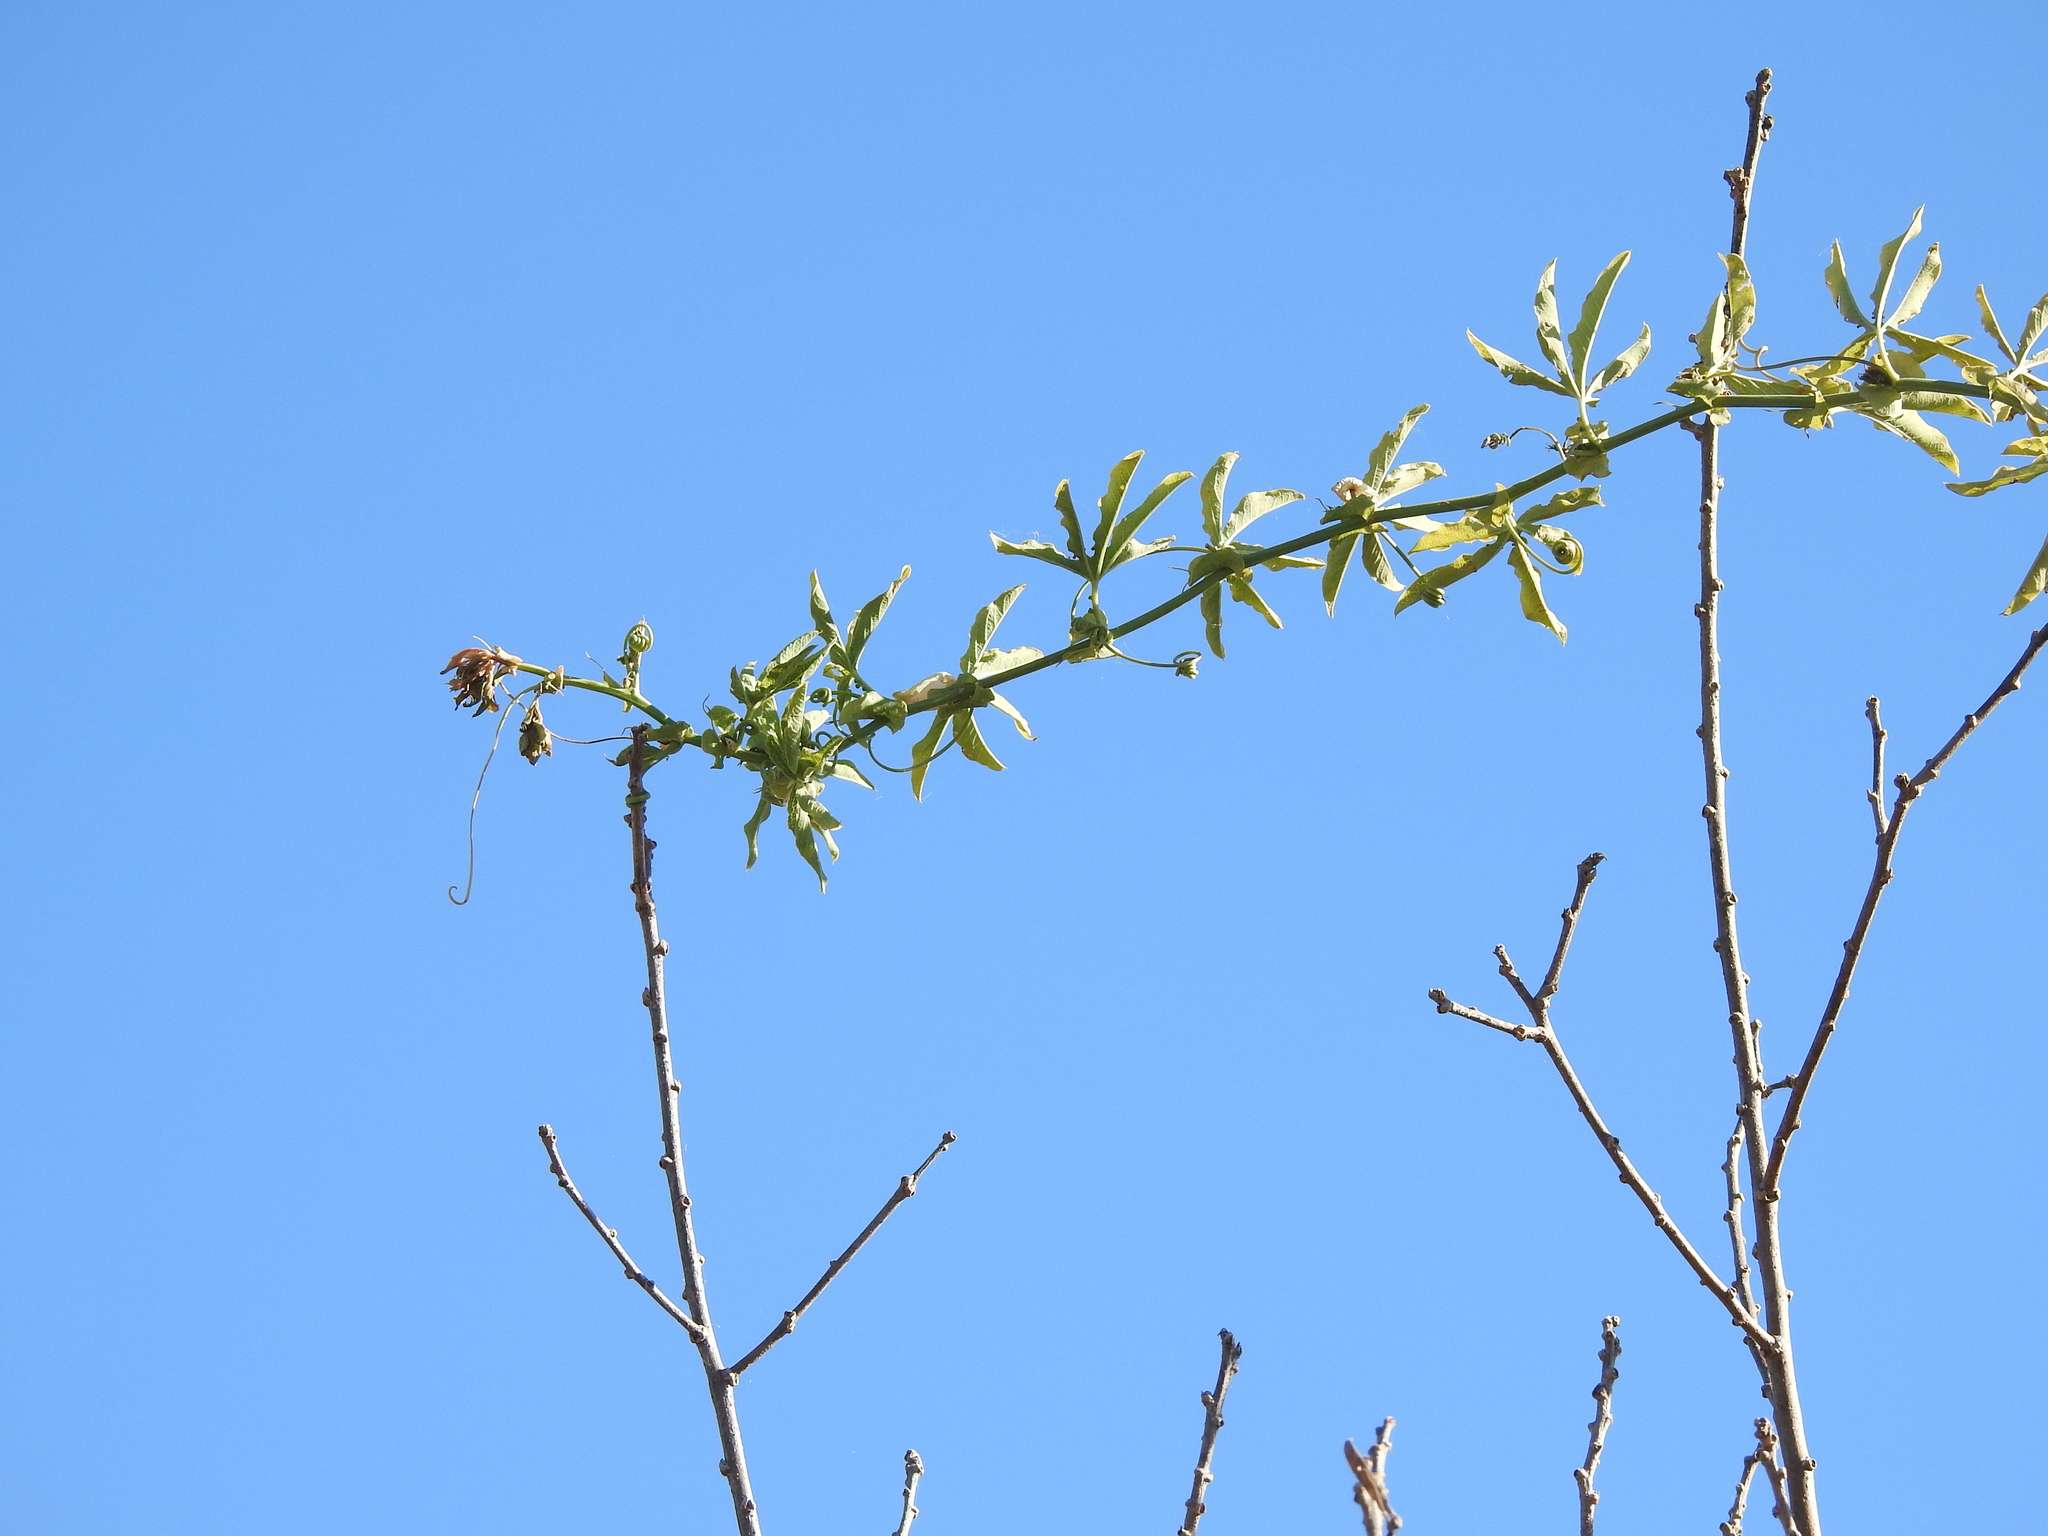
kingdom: Plantae
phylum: Tracheophyta
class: Magnoliopsida
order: Malpighiales
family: Passifloraceae
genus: Passiflora
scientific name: Passiflora caerulea
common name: Blue passionflower
